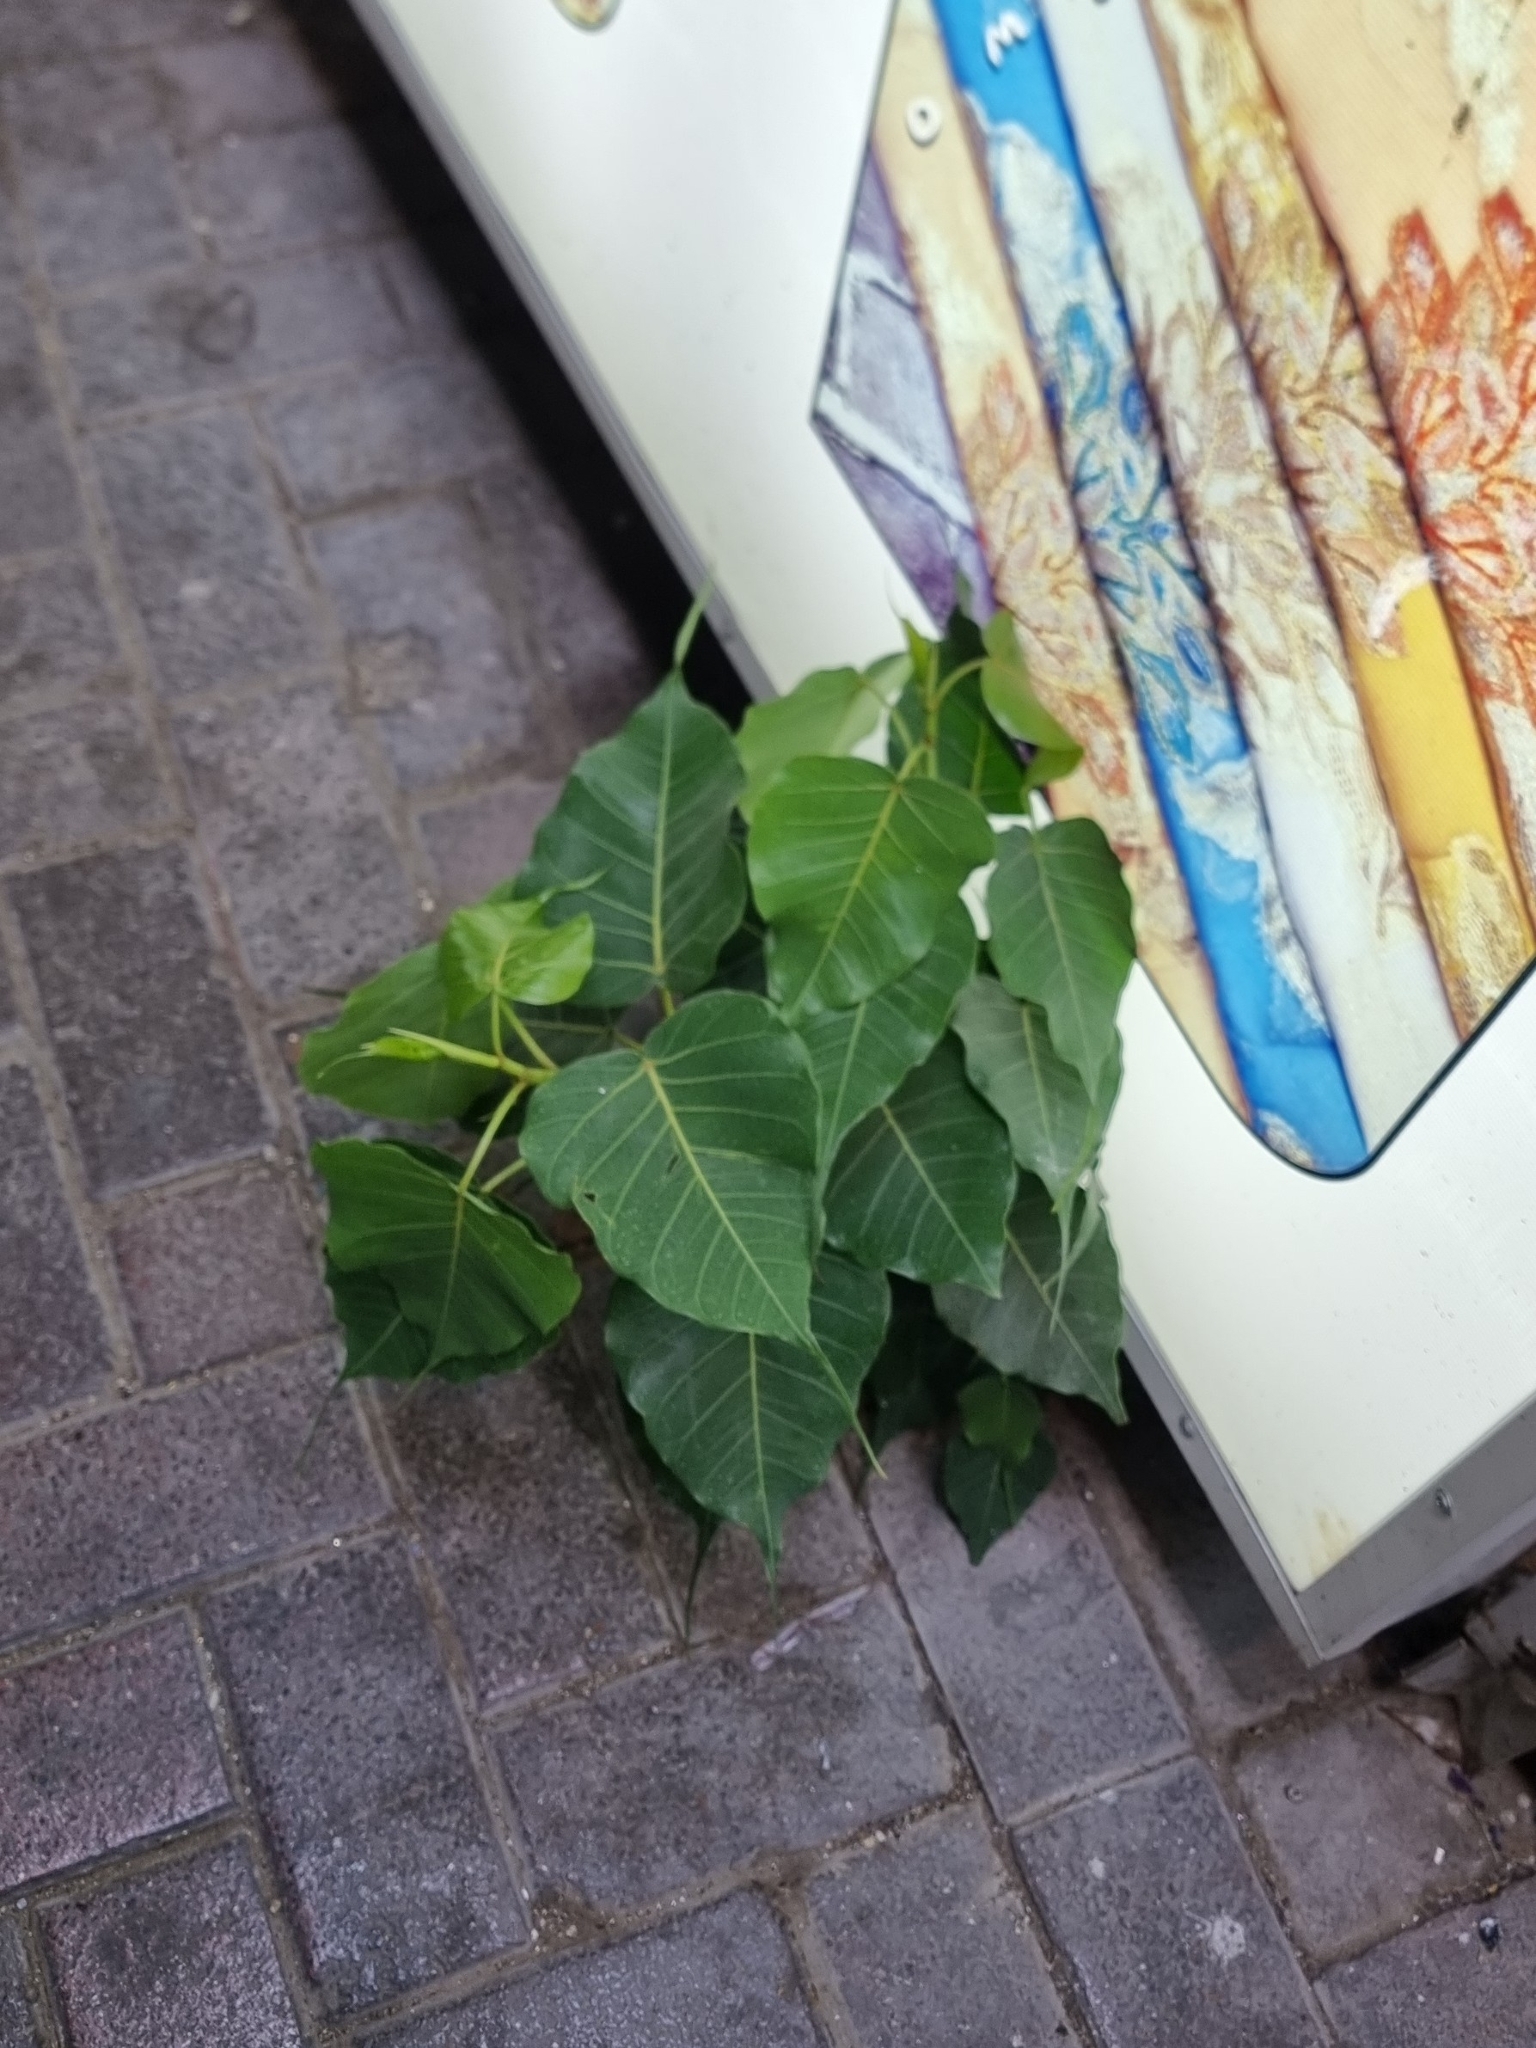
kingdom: Plantae
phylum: Tracheophyta
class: Magnoliopsida
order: Rosales
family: Moraceae
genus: Ficus
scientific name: Ficus religiosa
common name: Bodhi tree
